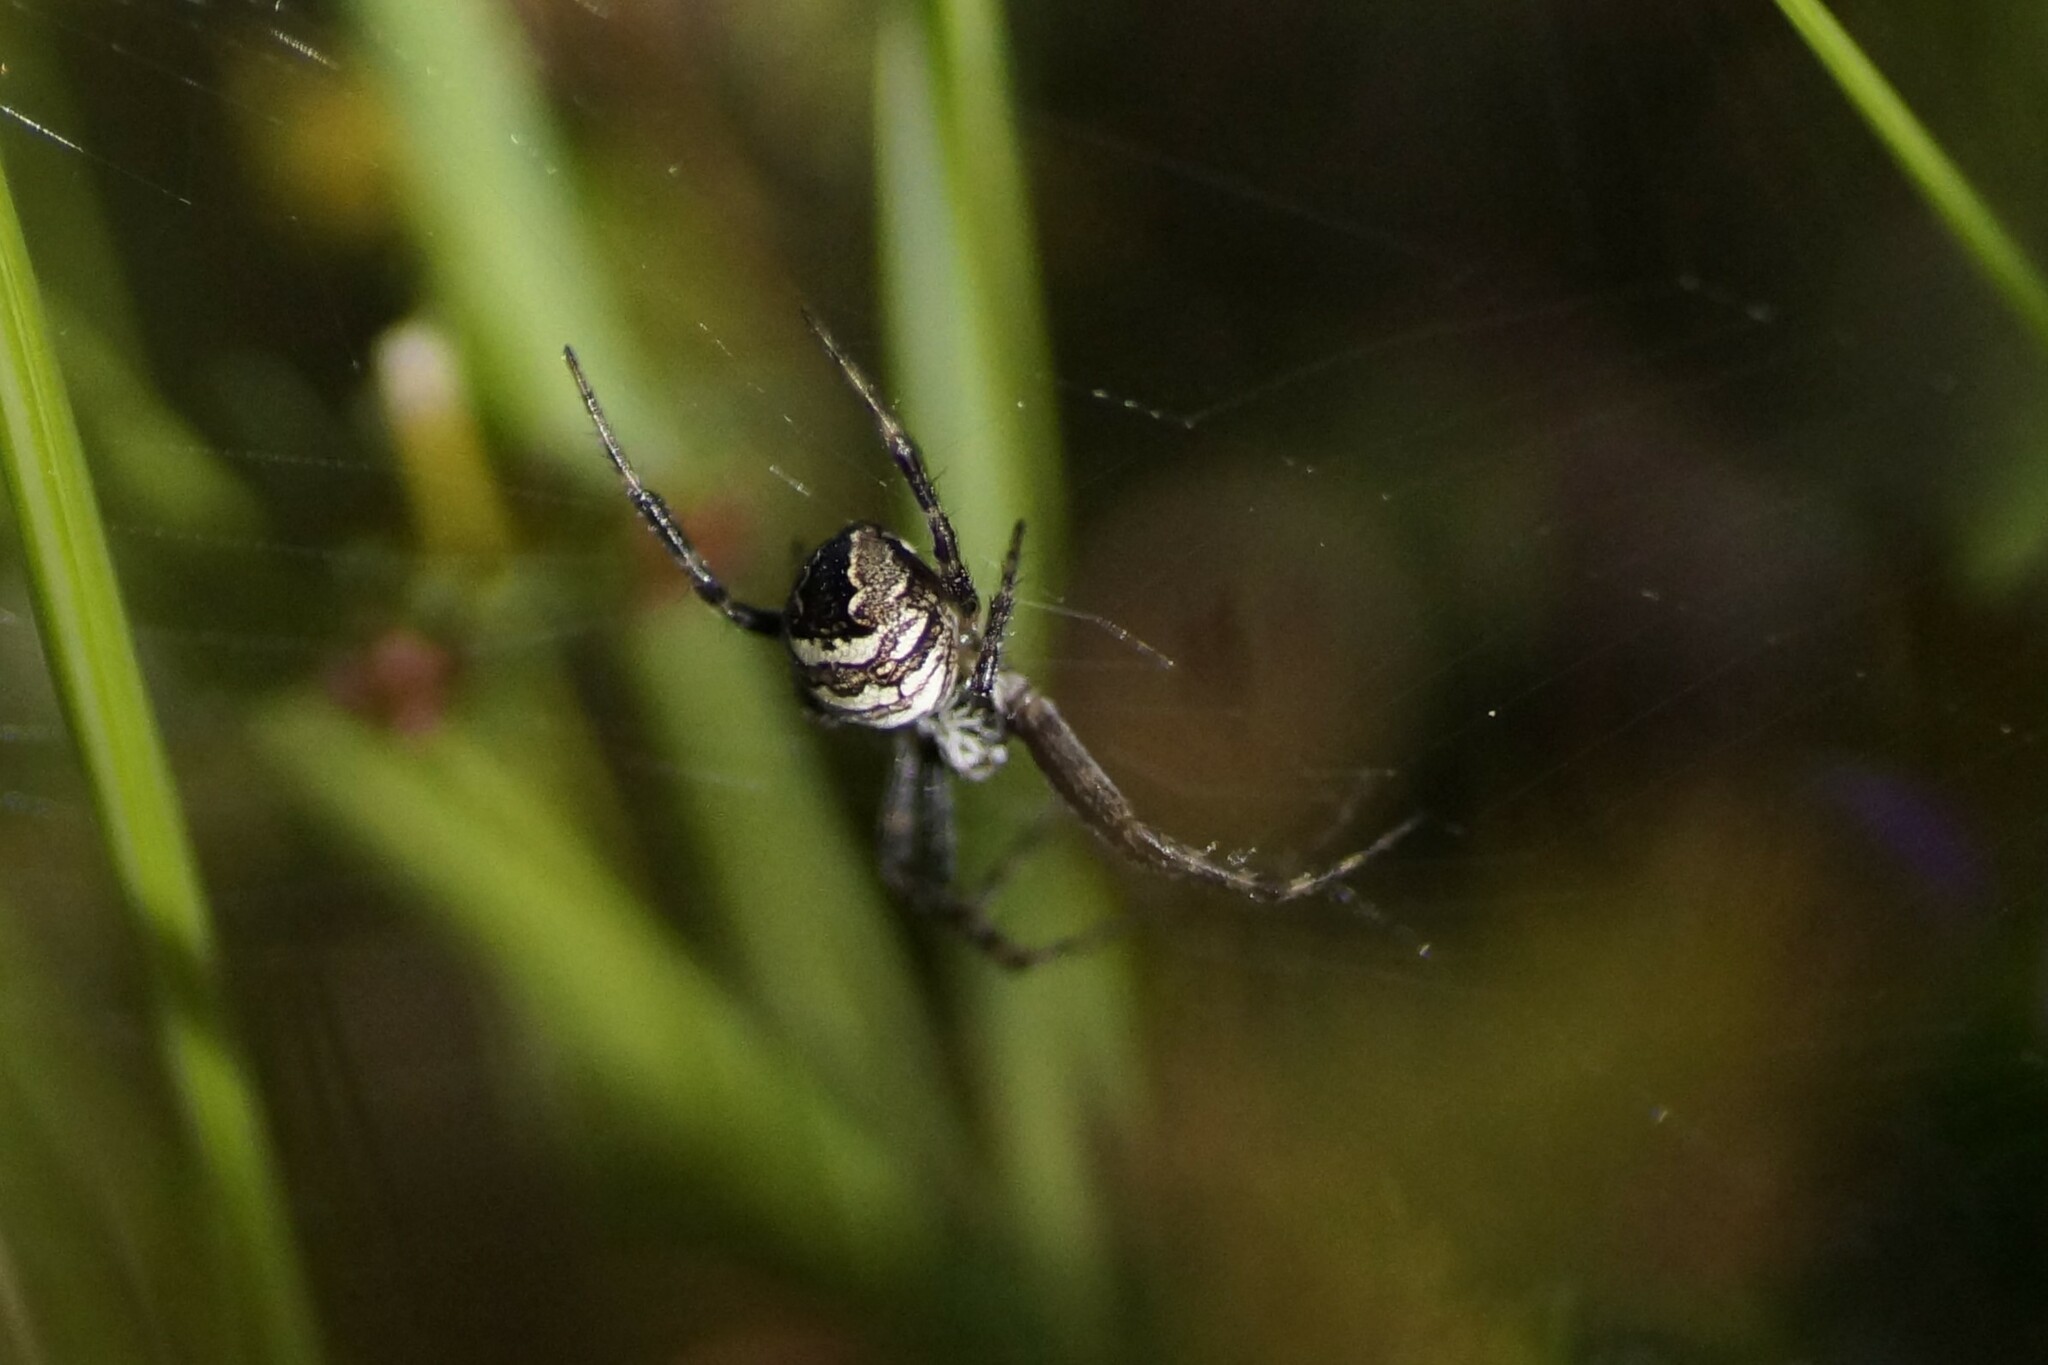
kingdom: Animalia
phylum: Arthropoda
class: Arachnida
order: Araneae
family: Araneidae
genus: Gea
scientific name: Gea theridioides
